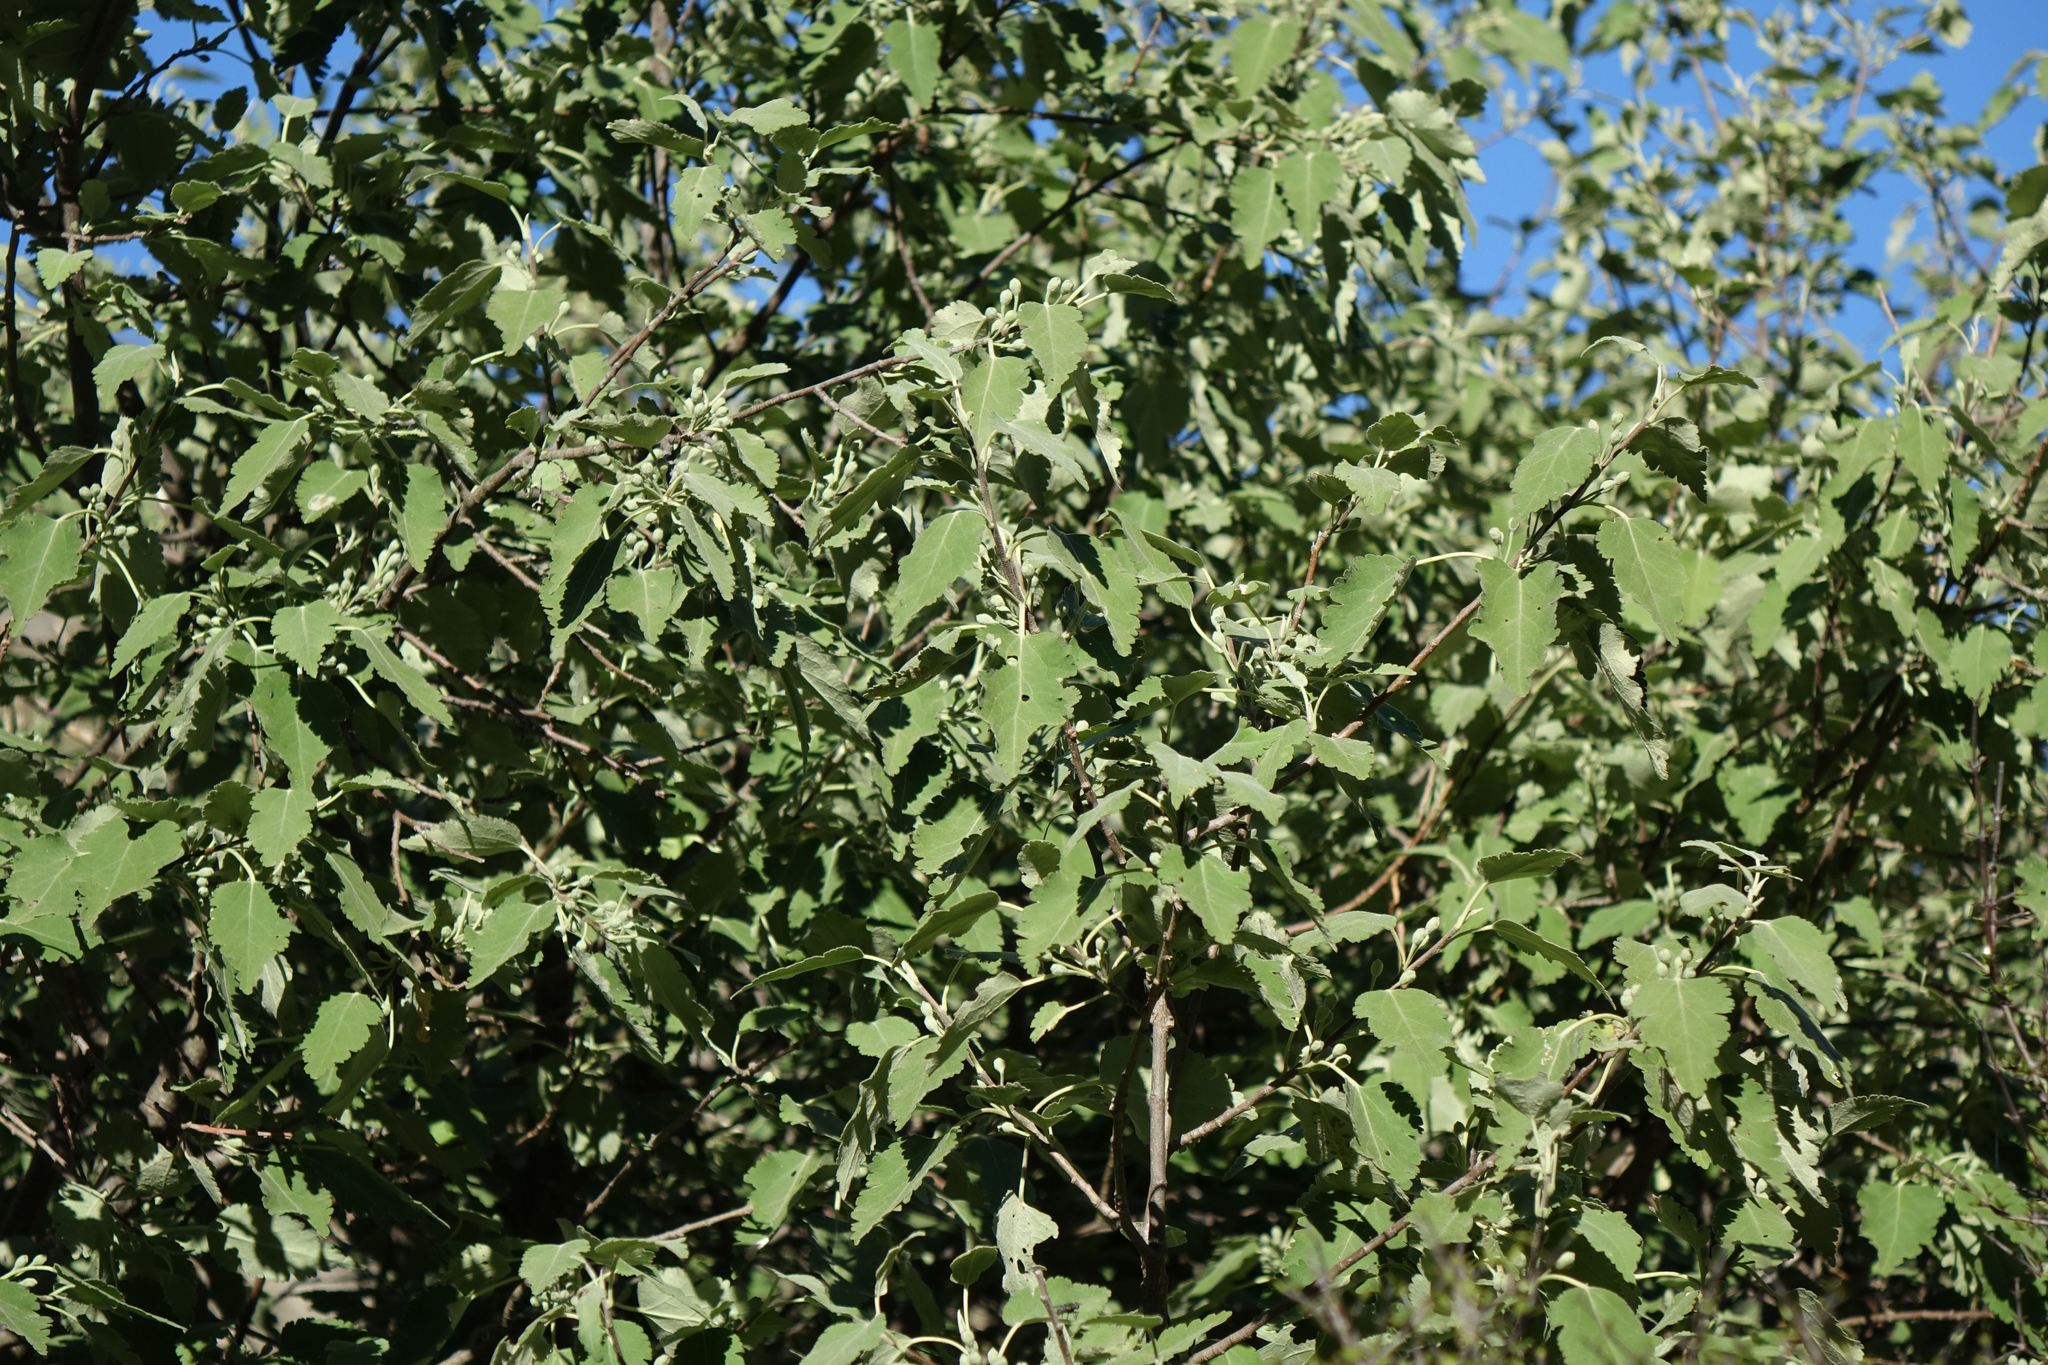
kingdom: Plantae
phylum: Tracheophyta
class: Magnoliopsida
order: Malvales
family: Malvaceae
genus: Hoheria
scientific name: Hoheria lyallii
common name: Lacebark
